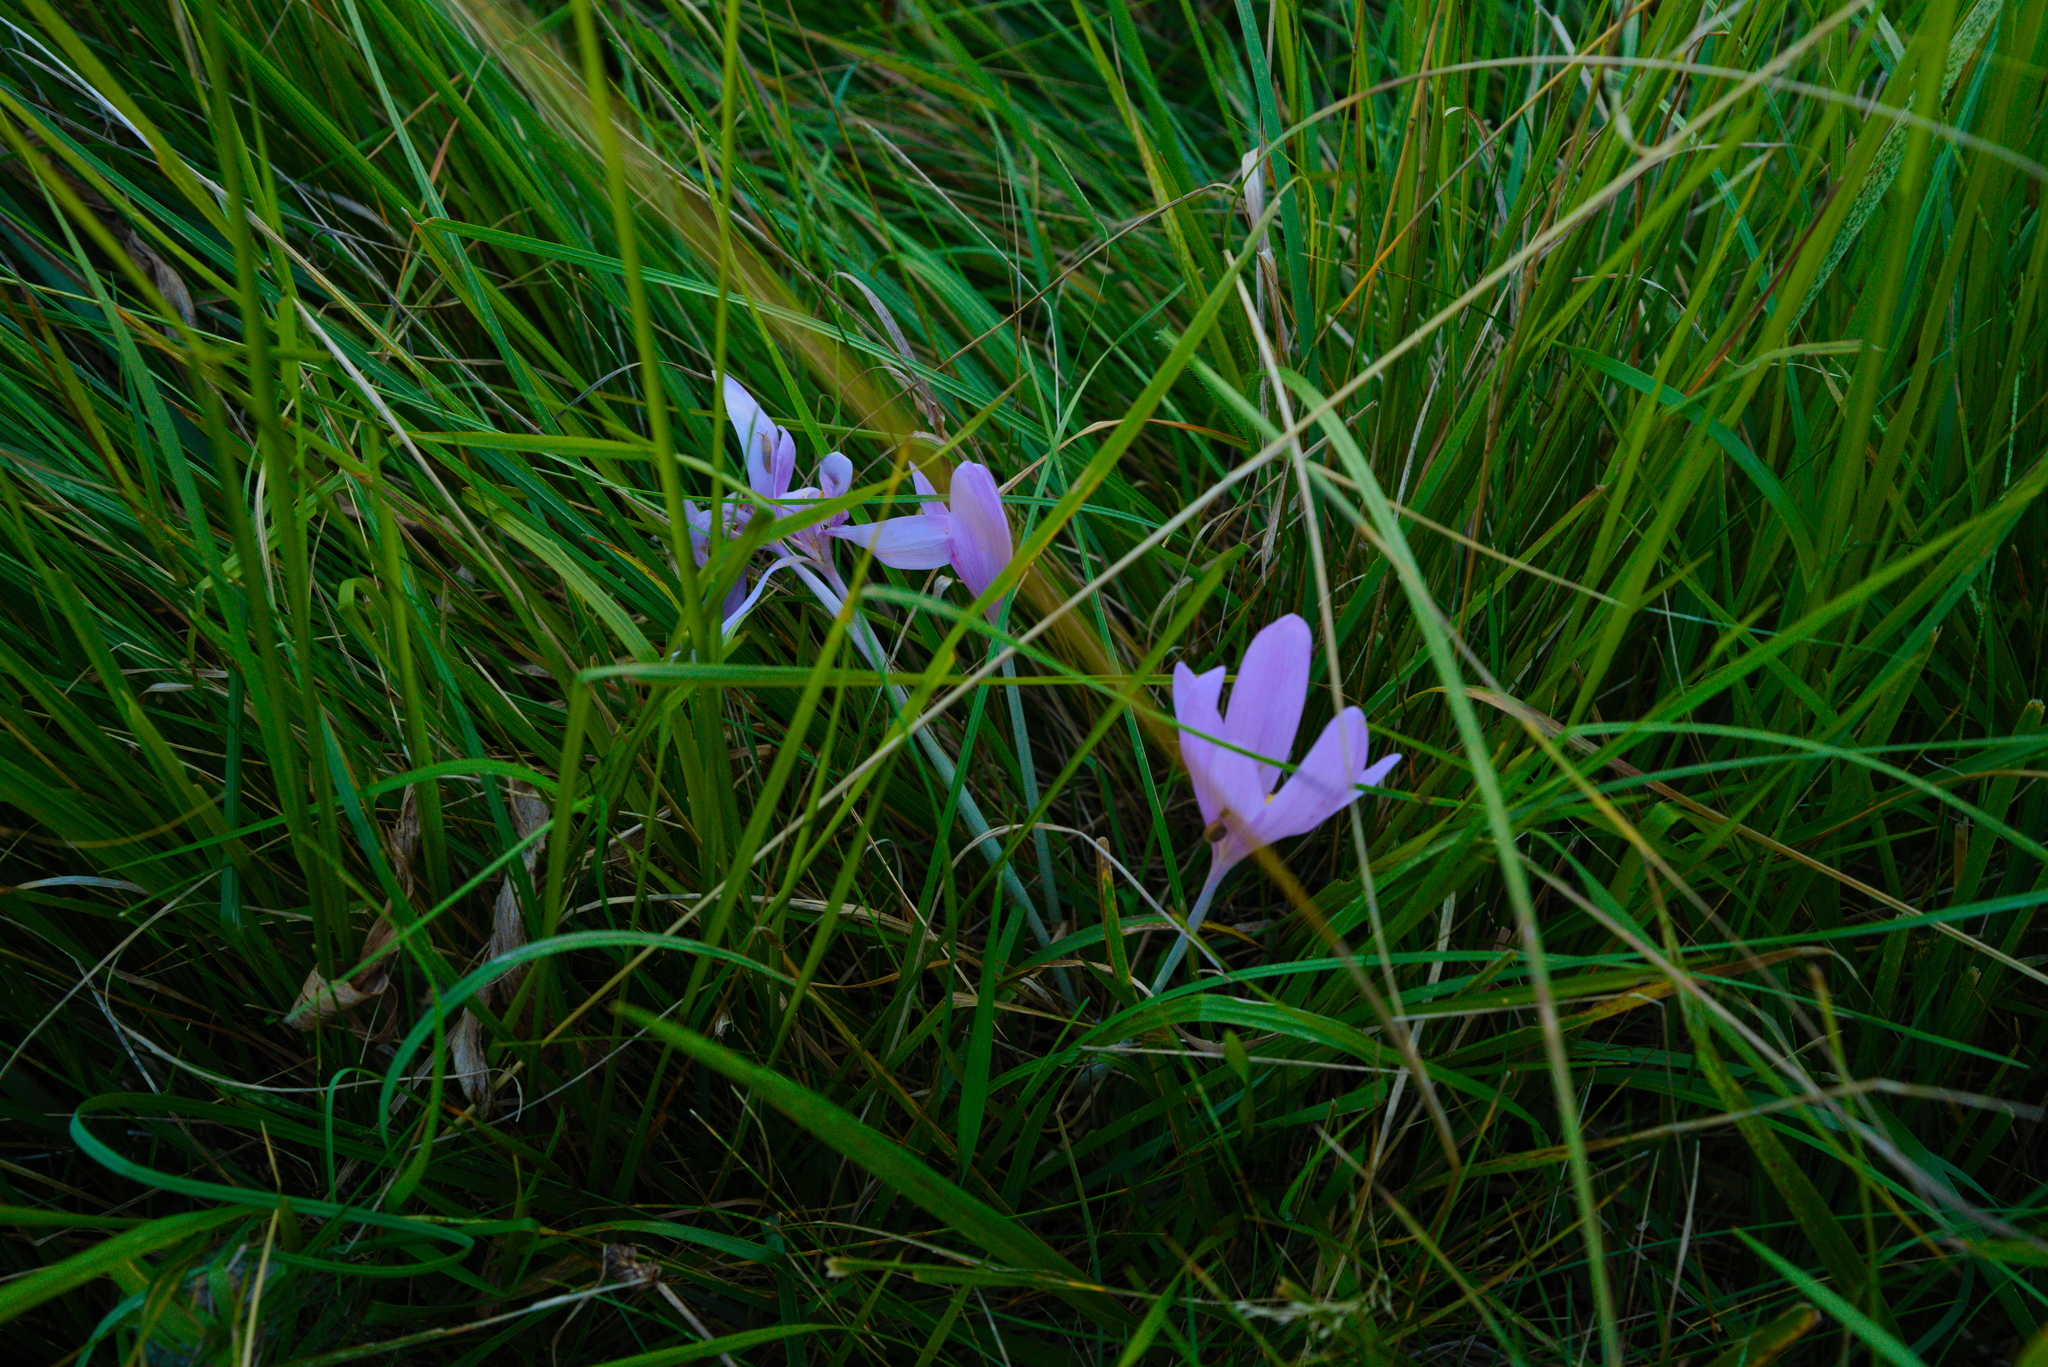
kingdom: Plantae
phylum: Tracheophyta
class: Liliopsida
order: Liliales
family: Colchicaceae
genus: Colchicum
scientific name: Colchicum autumnale
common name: Autumn crocus
